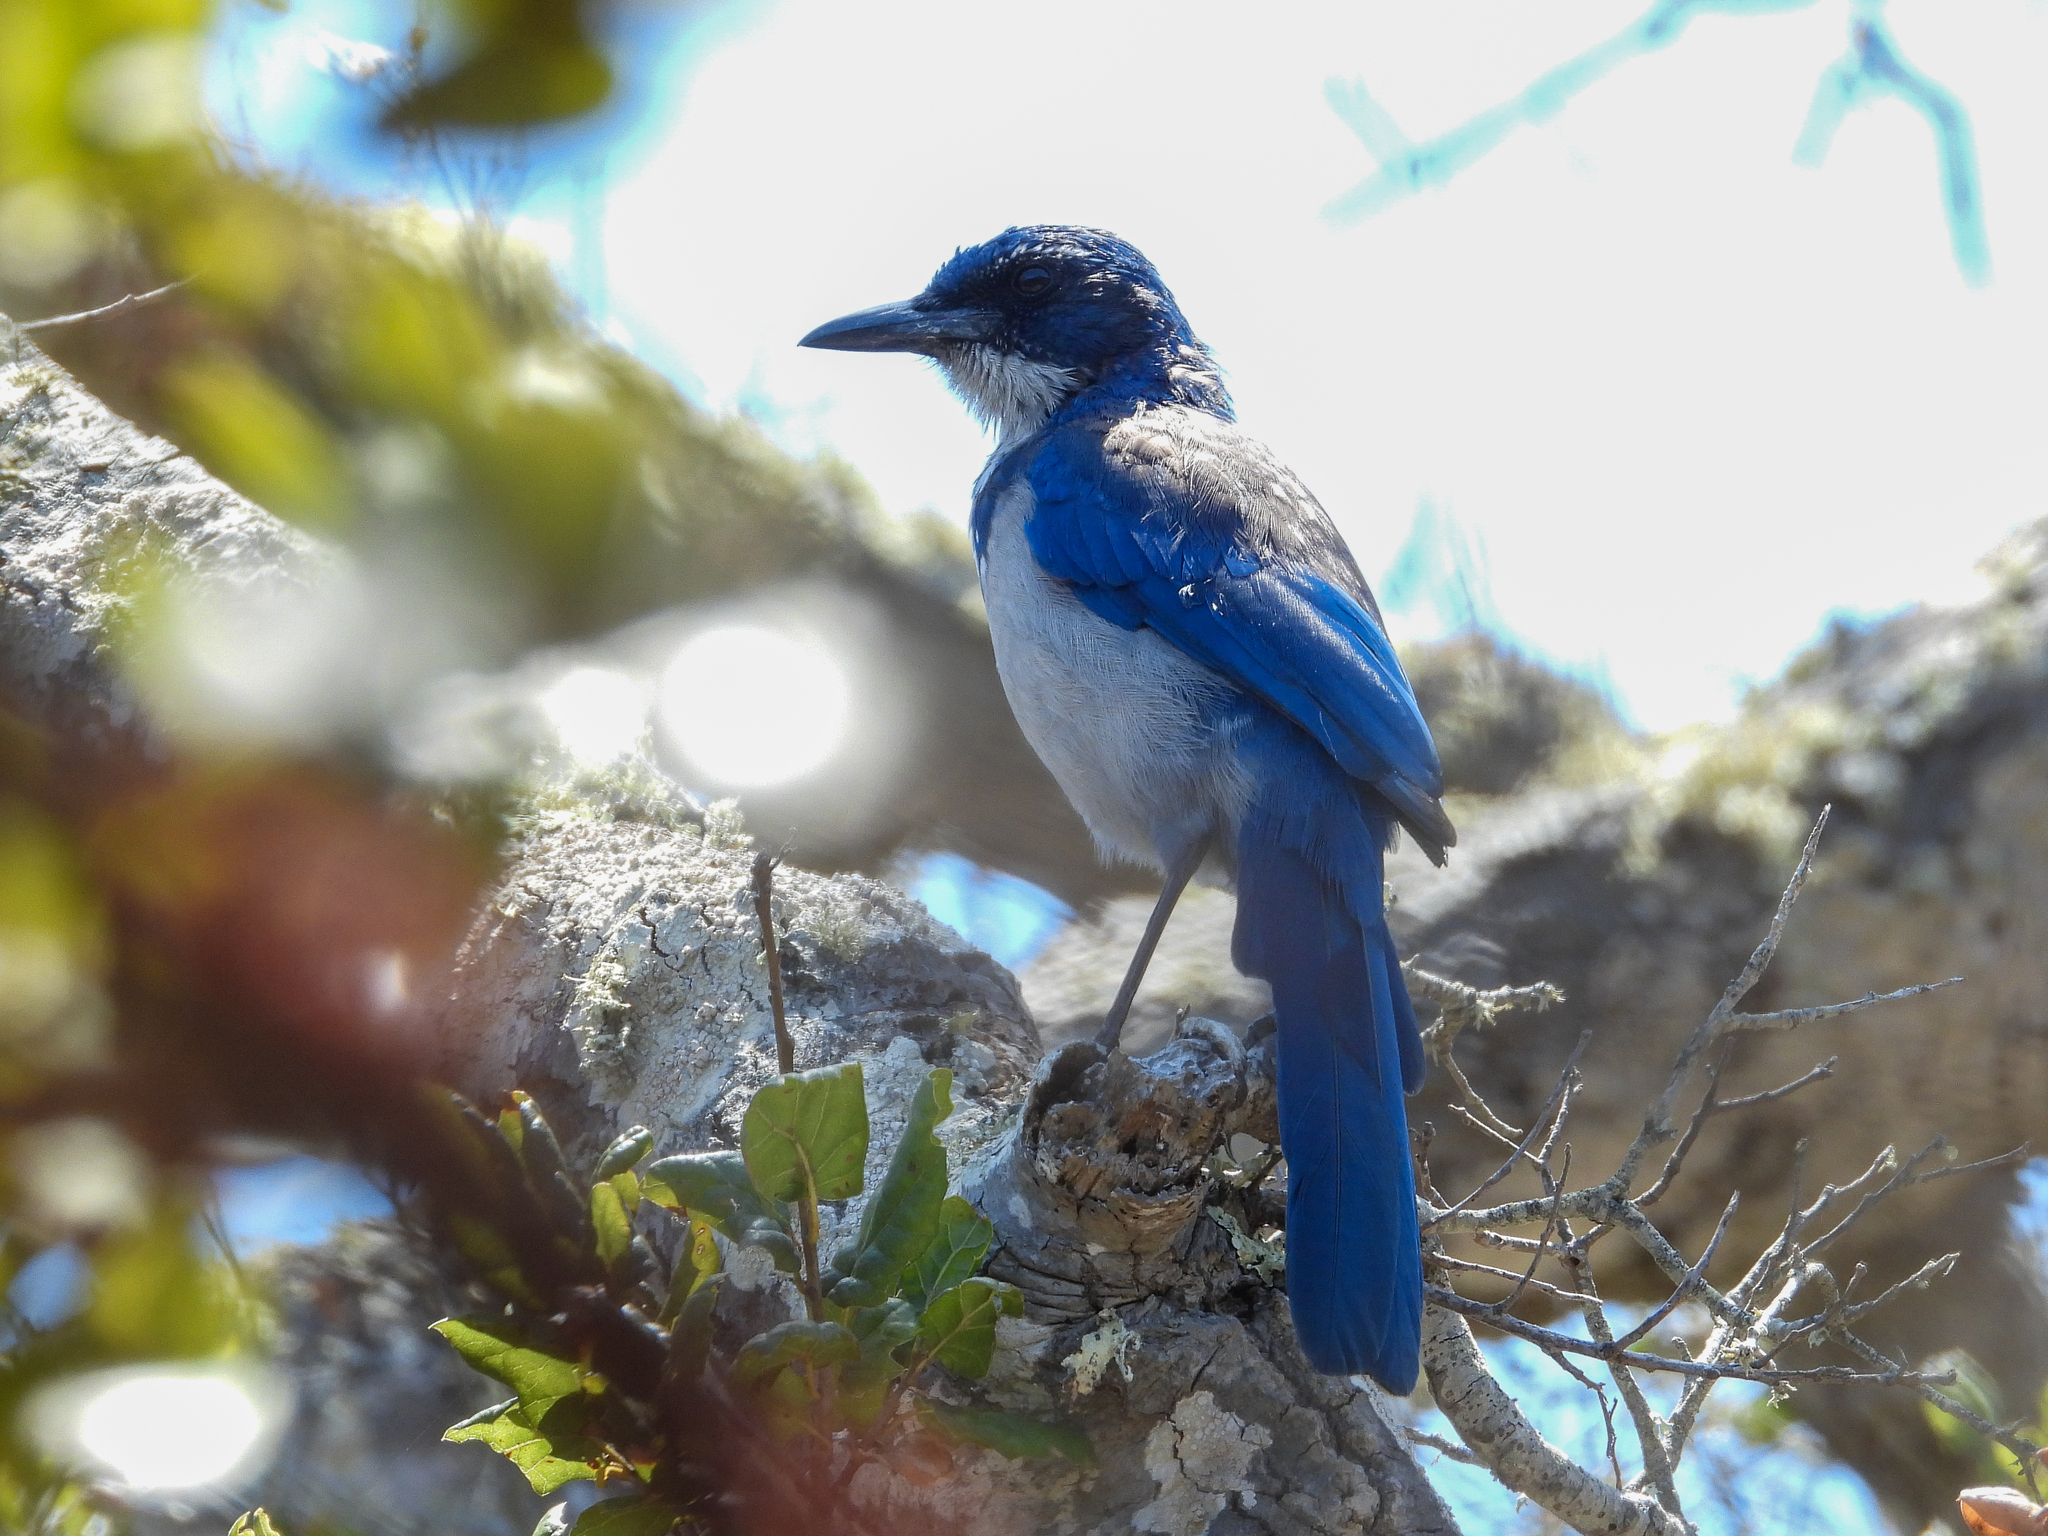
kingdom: Animalia
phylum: Chordata
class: Aves
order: Passeriformes
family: Corvidae
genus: Aphelocoma
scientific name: Aphelocoma insularis
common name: Island scrub-jay
